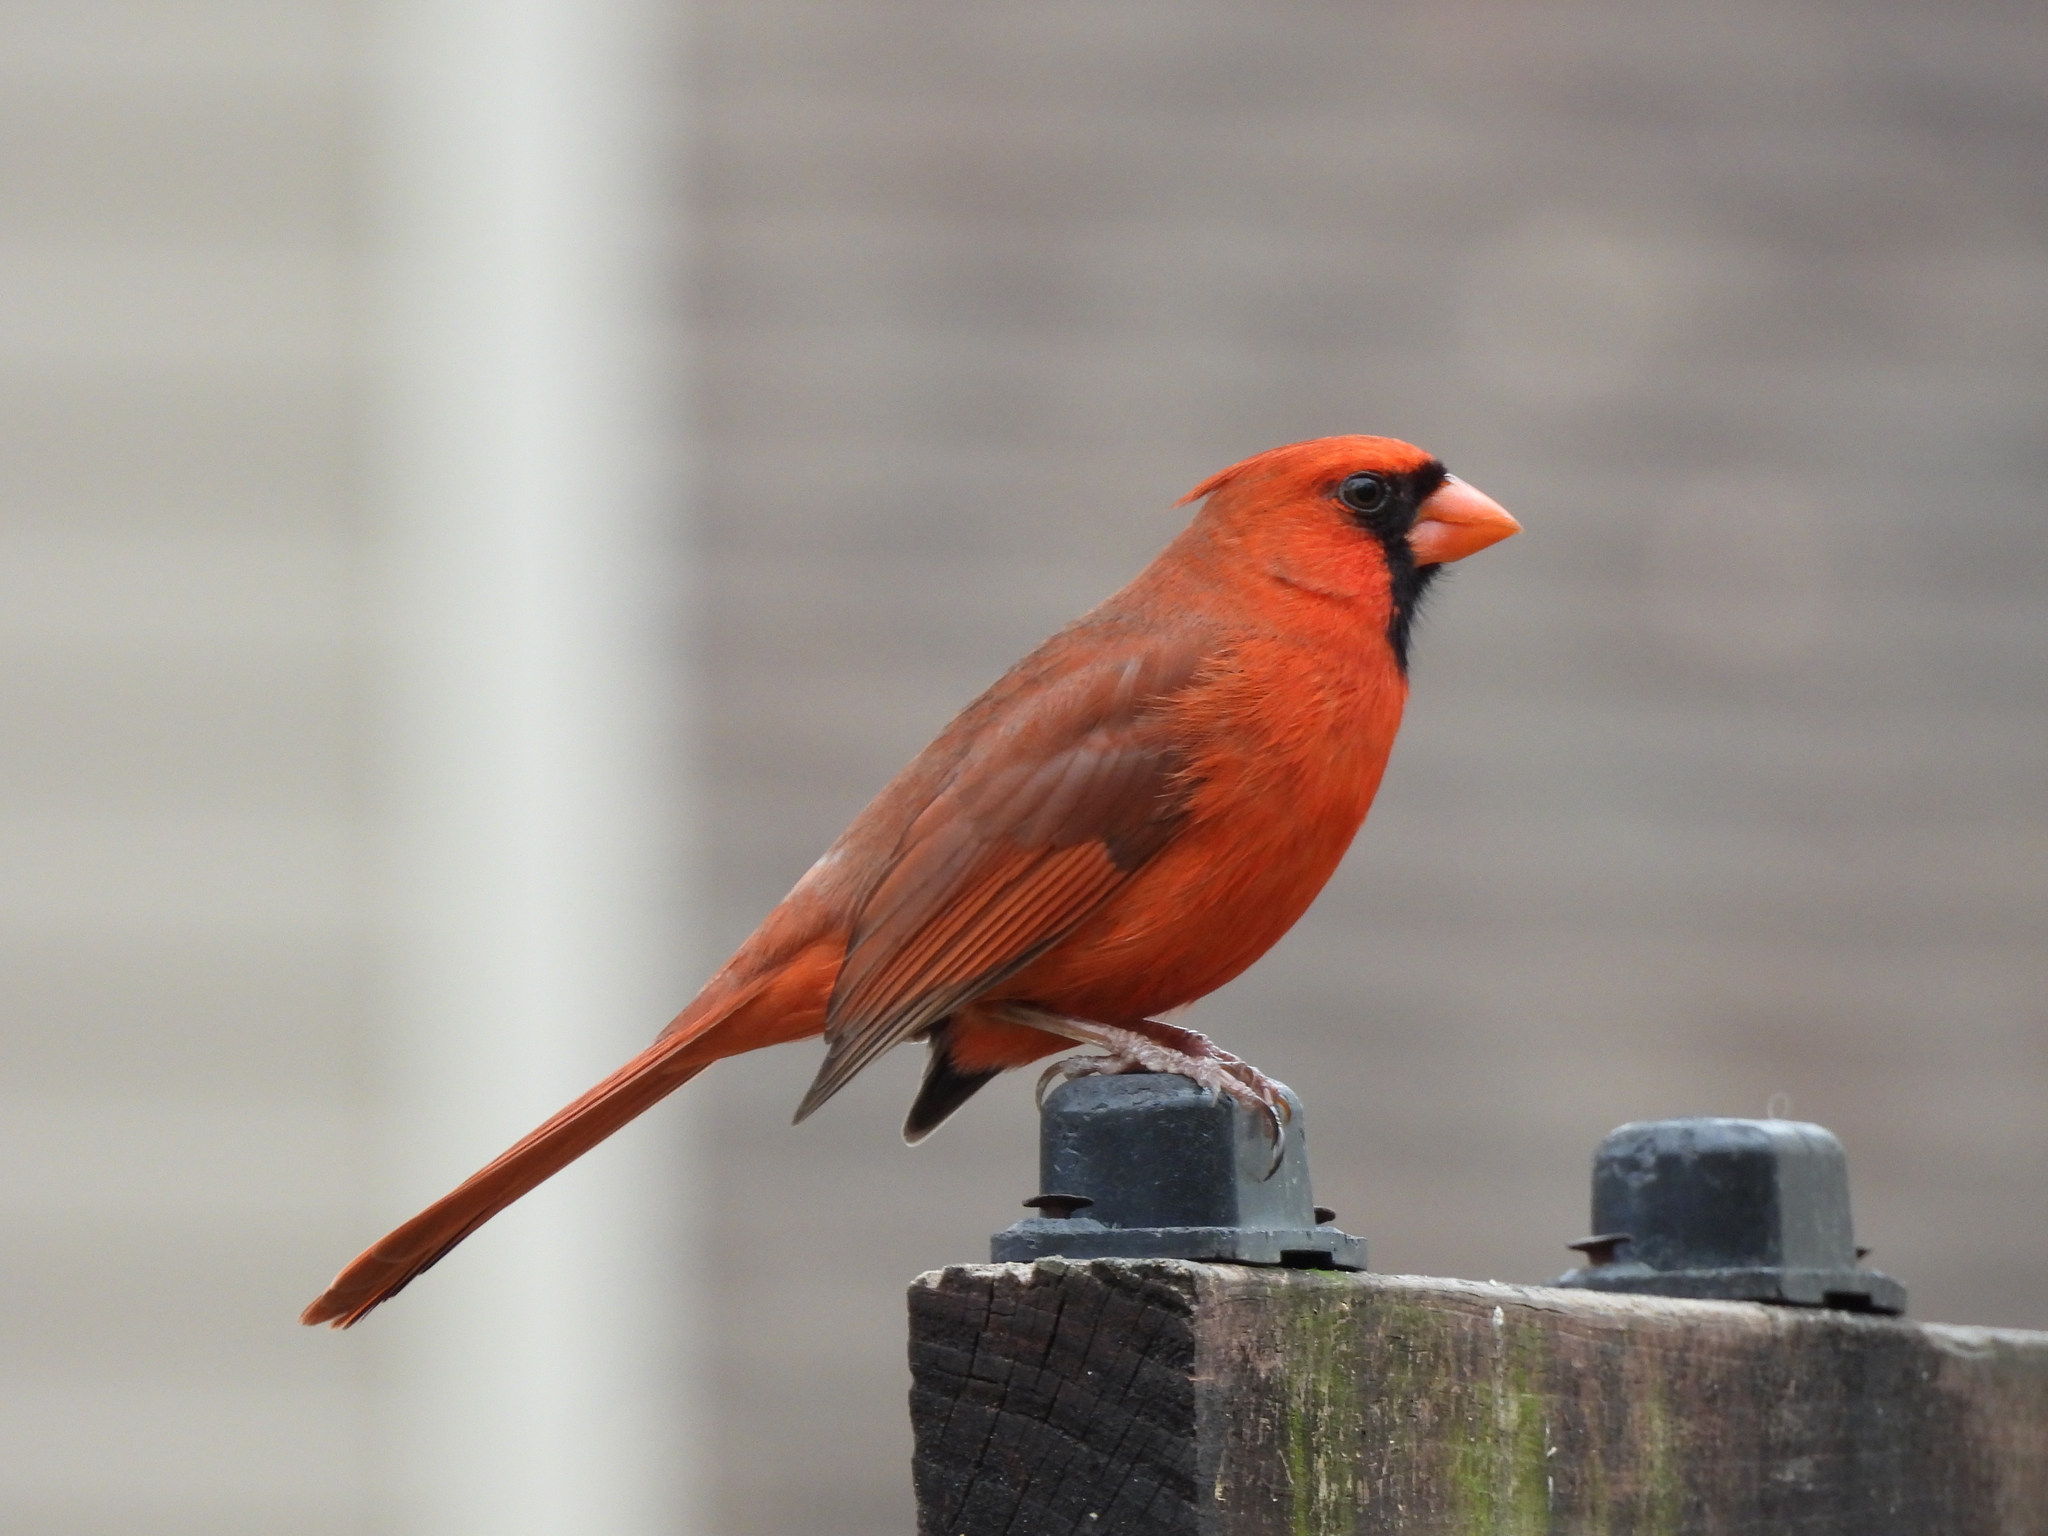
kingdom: Animalia
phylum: Chordata
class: Aves
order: Passeriformes
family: Cardinalidae
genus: Cardinalis
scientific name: Cardinalis cardinalis
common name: Northern cardinal
